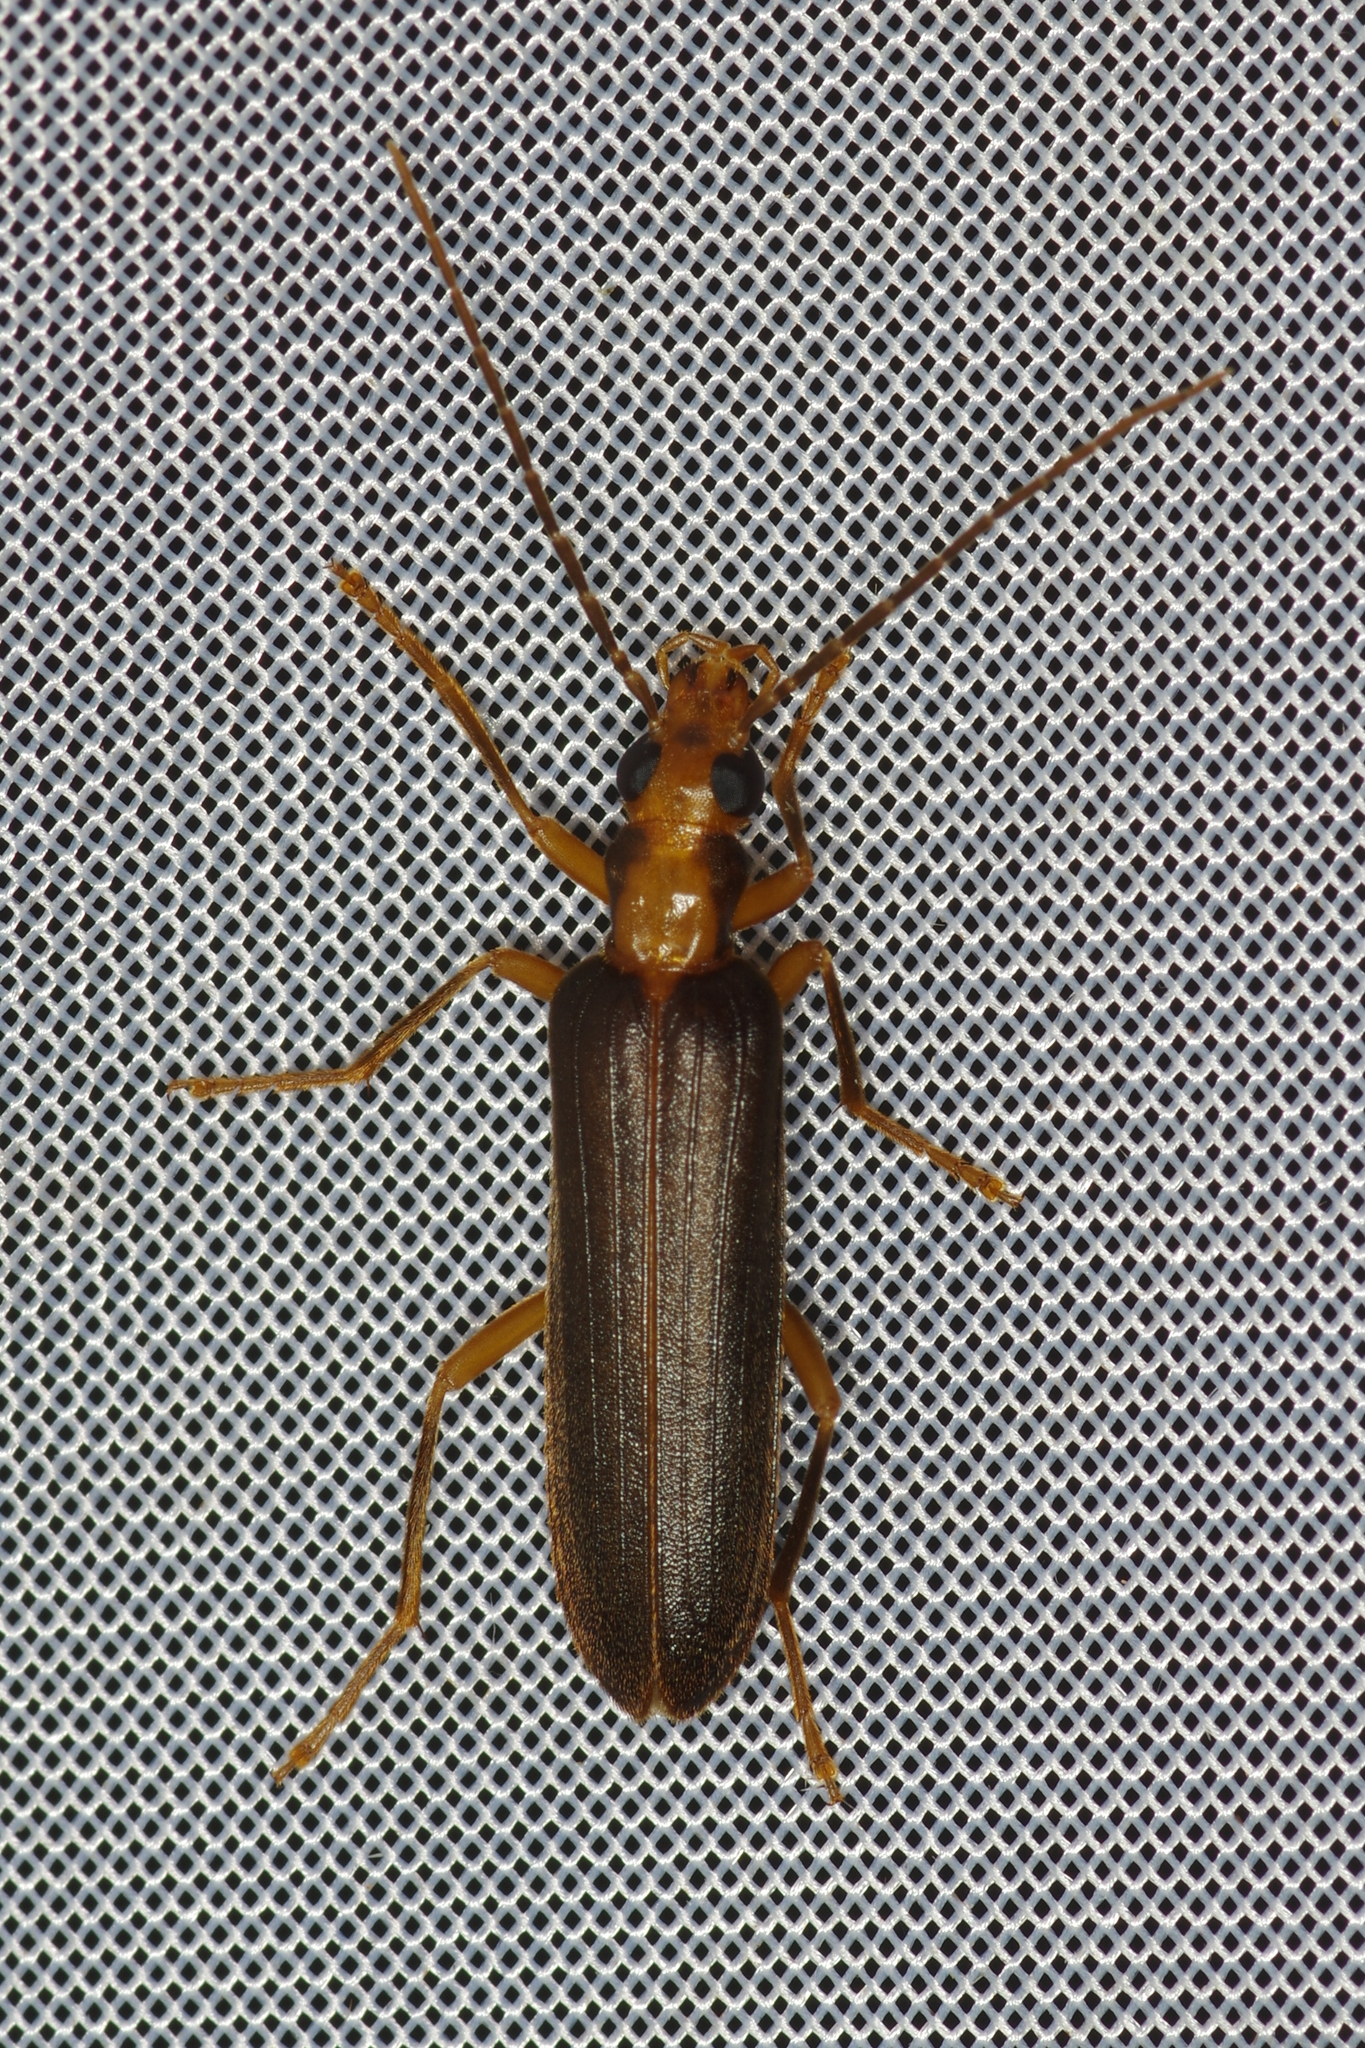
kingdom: Animalia
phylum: Arthropoda
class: Insecta
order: Coleoptera
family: Oedemeridae
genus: Nacerdes
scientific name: Nacerdes carniolica
